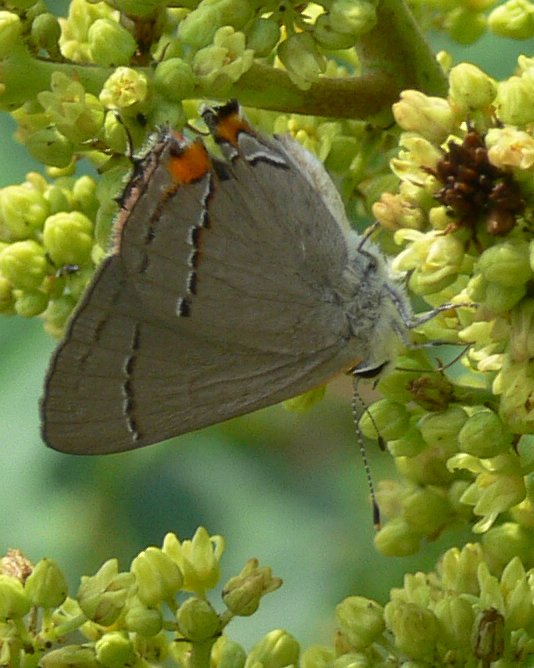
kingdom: Animalia
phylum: Arthropoda
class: Insecta
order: Lepidoptera
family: Lycaenidae
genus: Strymon
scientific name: Strymon melinus
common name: Gray hairstreak
